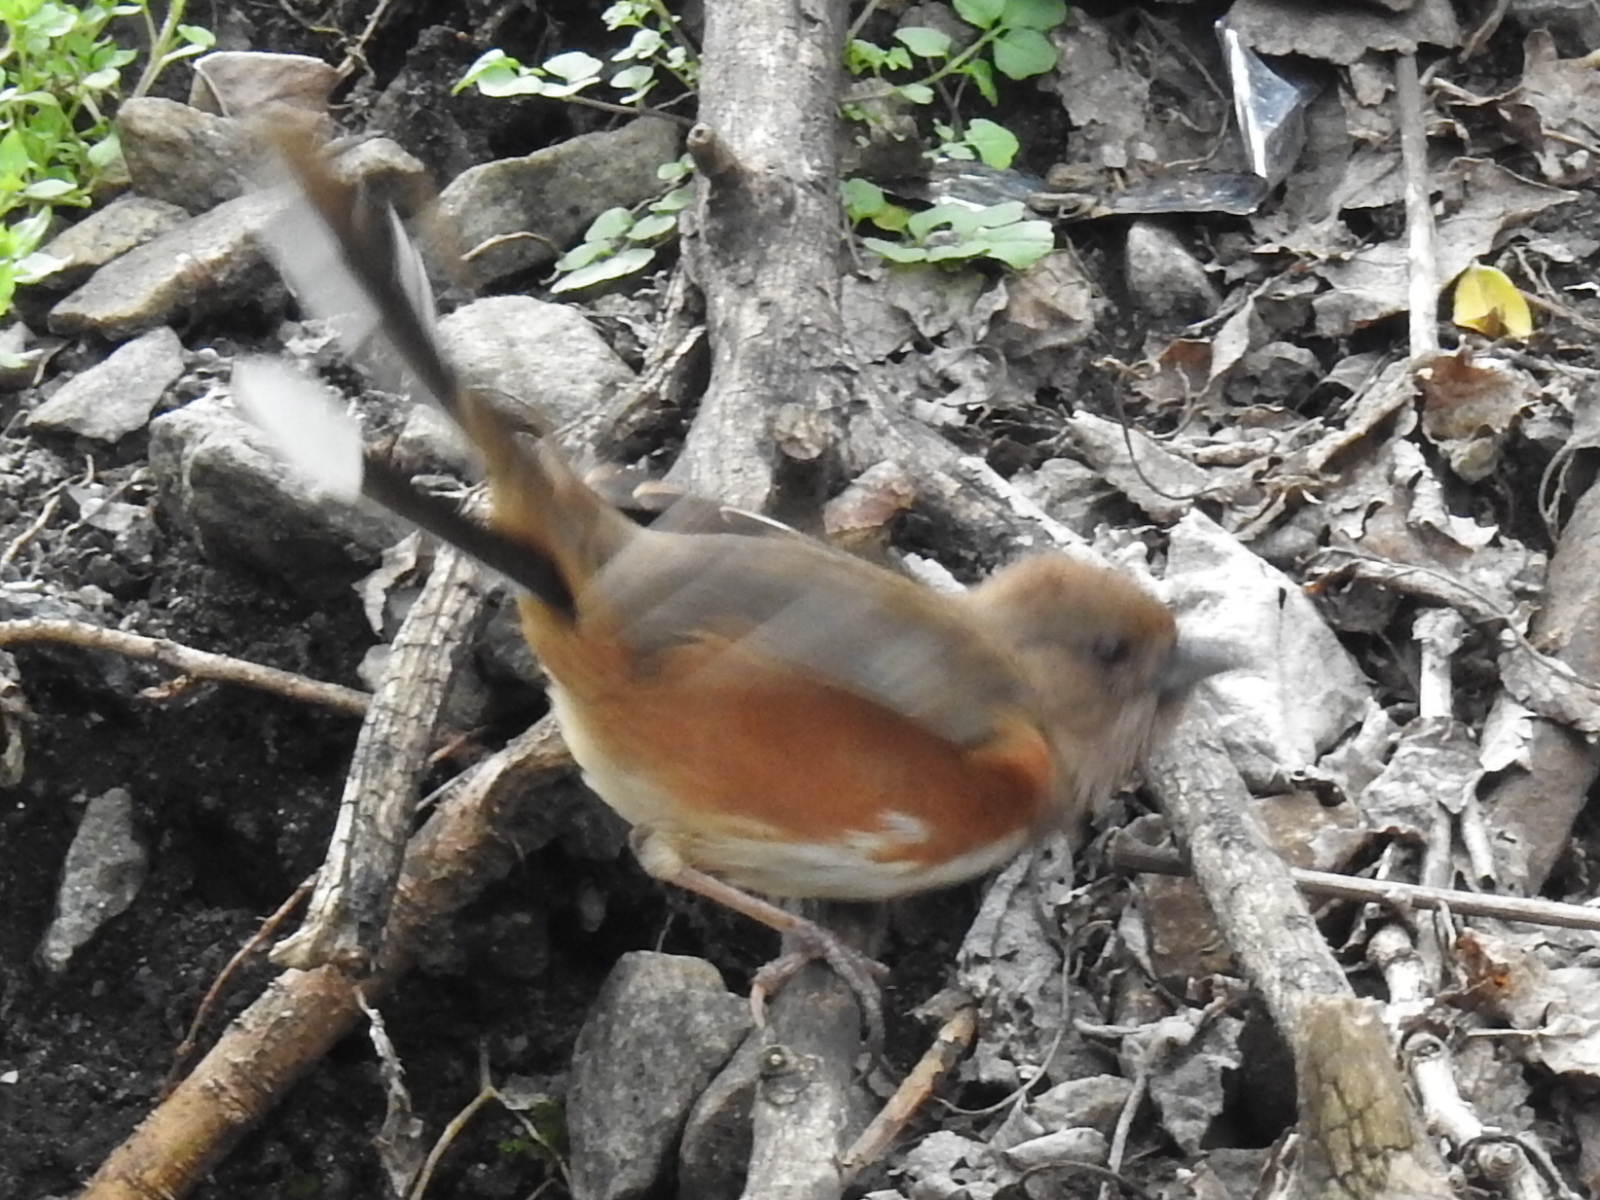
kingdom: Animalia
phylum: Chordata
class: Aves
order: Passeriformes
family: Passerellidae
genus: Pipilo
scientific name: Pipilo erythrophthalmus
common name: Eastern towhee
